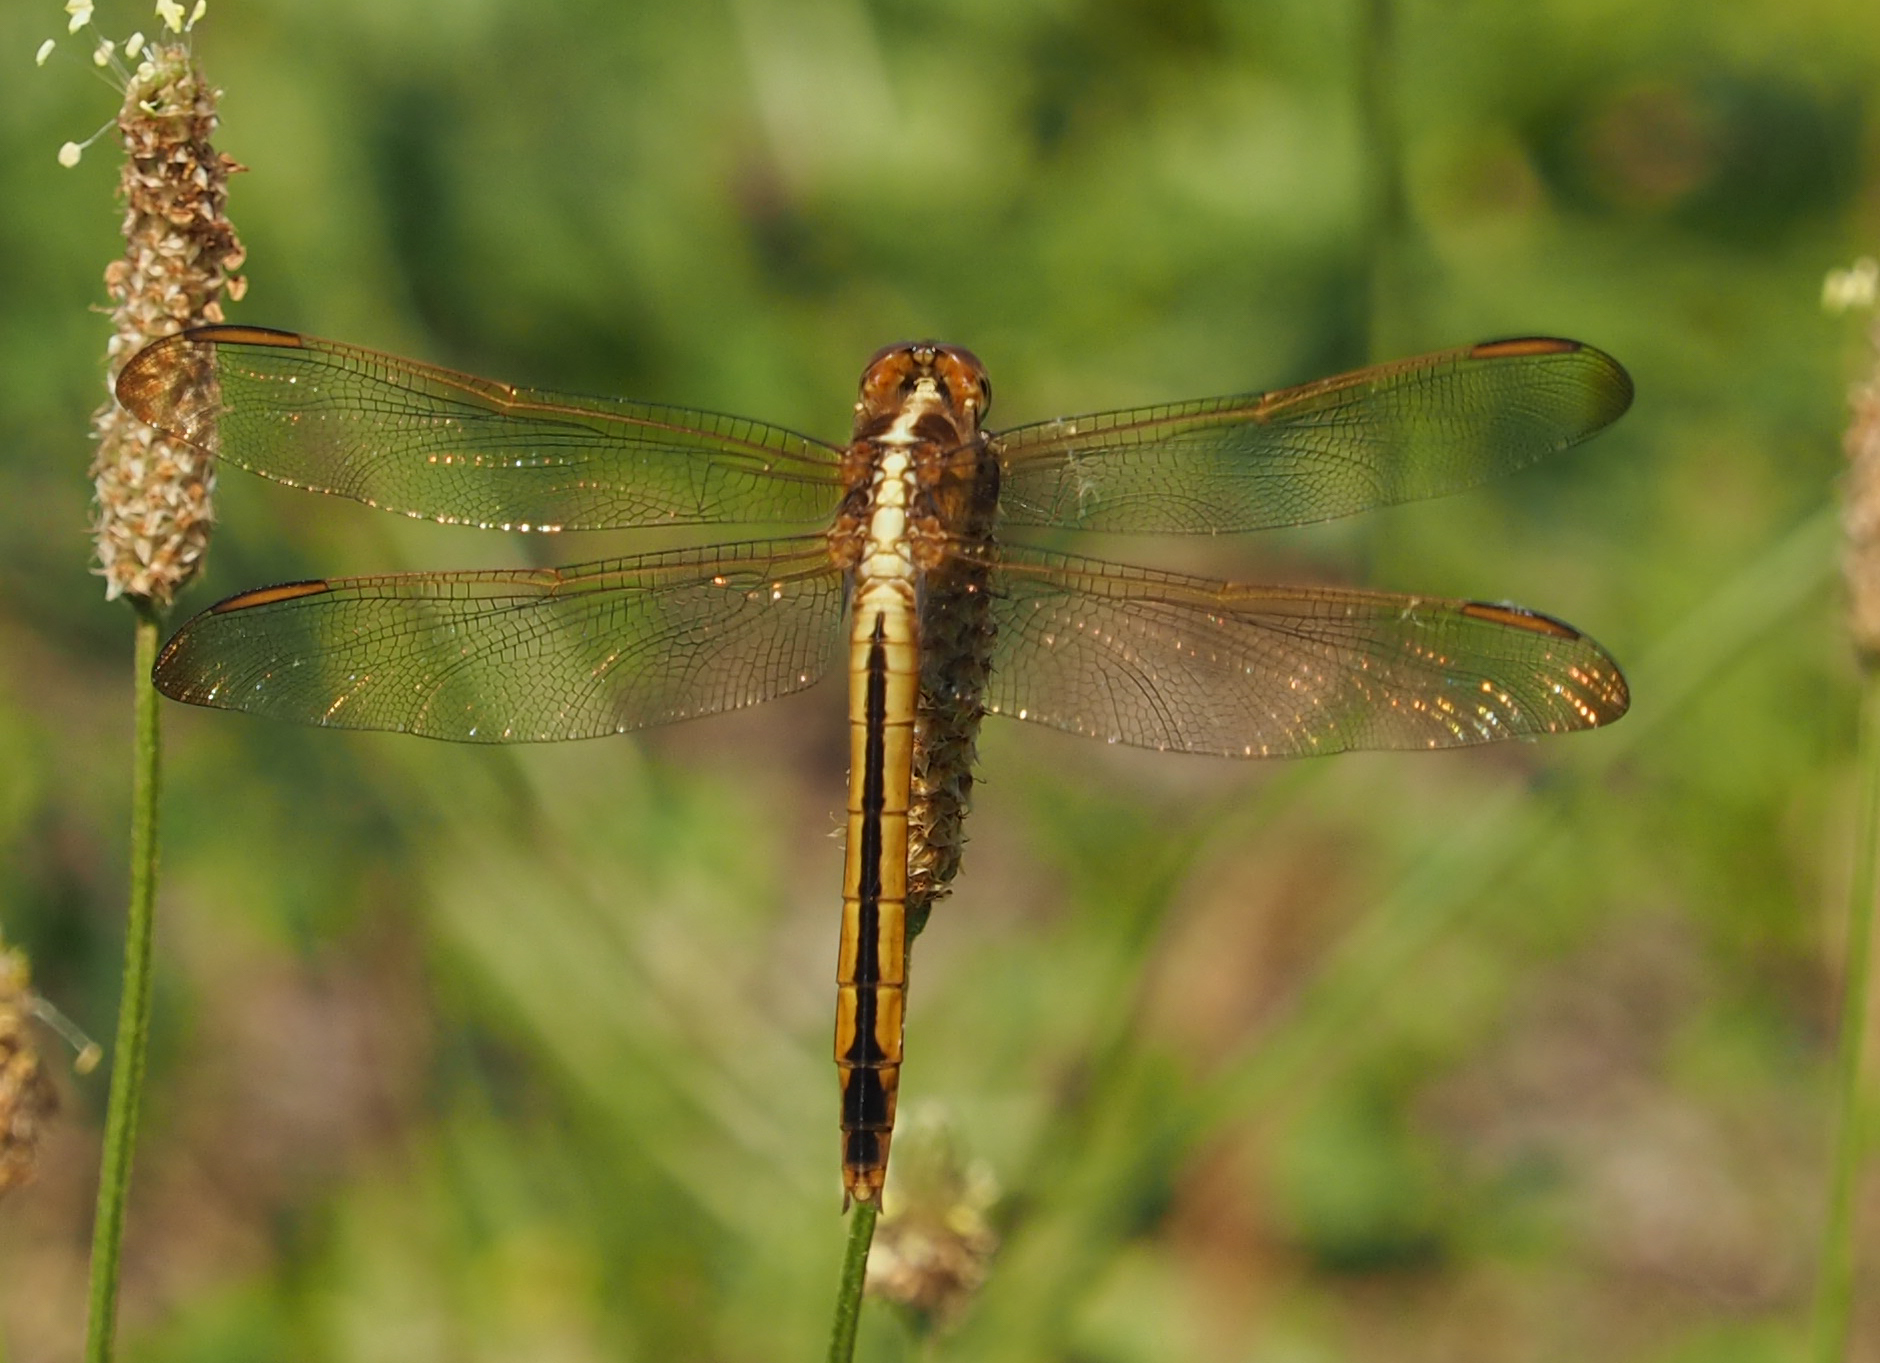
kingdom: Animalia
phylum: Arthropoda
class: Insecta
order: Odonata
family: Libellulidae
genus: Libellula
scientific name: Libellula needhami
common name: Needham's skimmer
